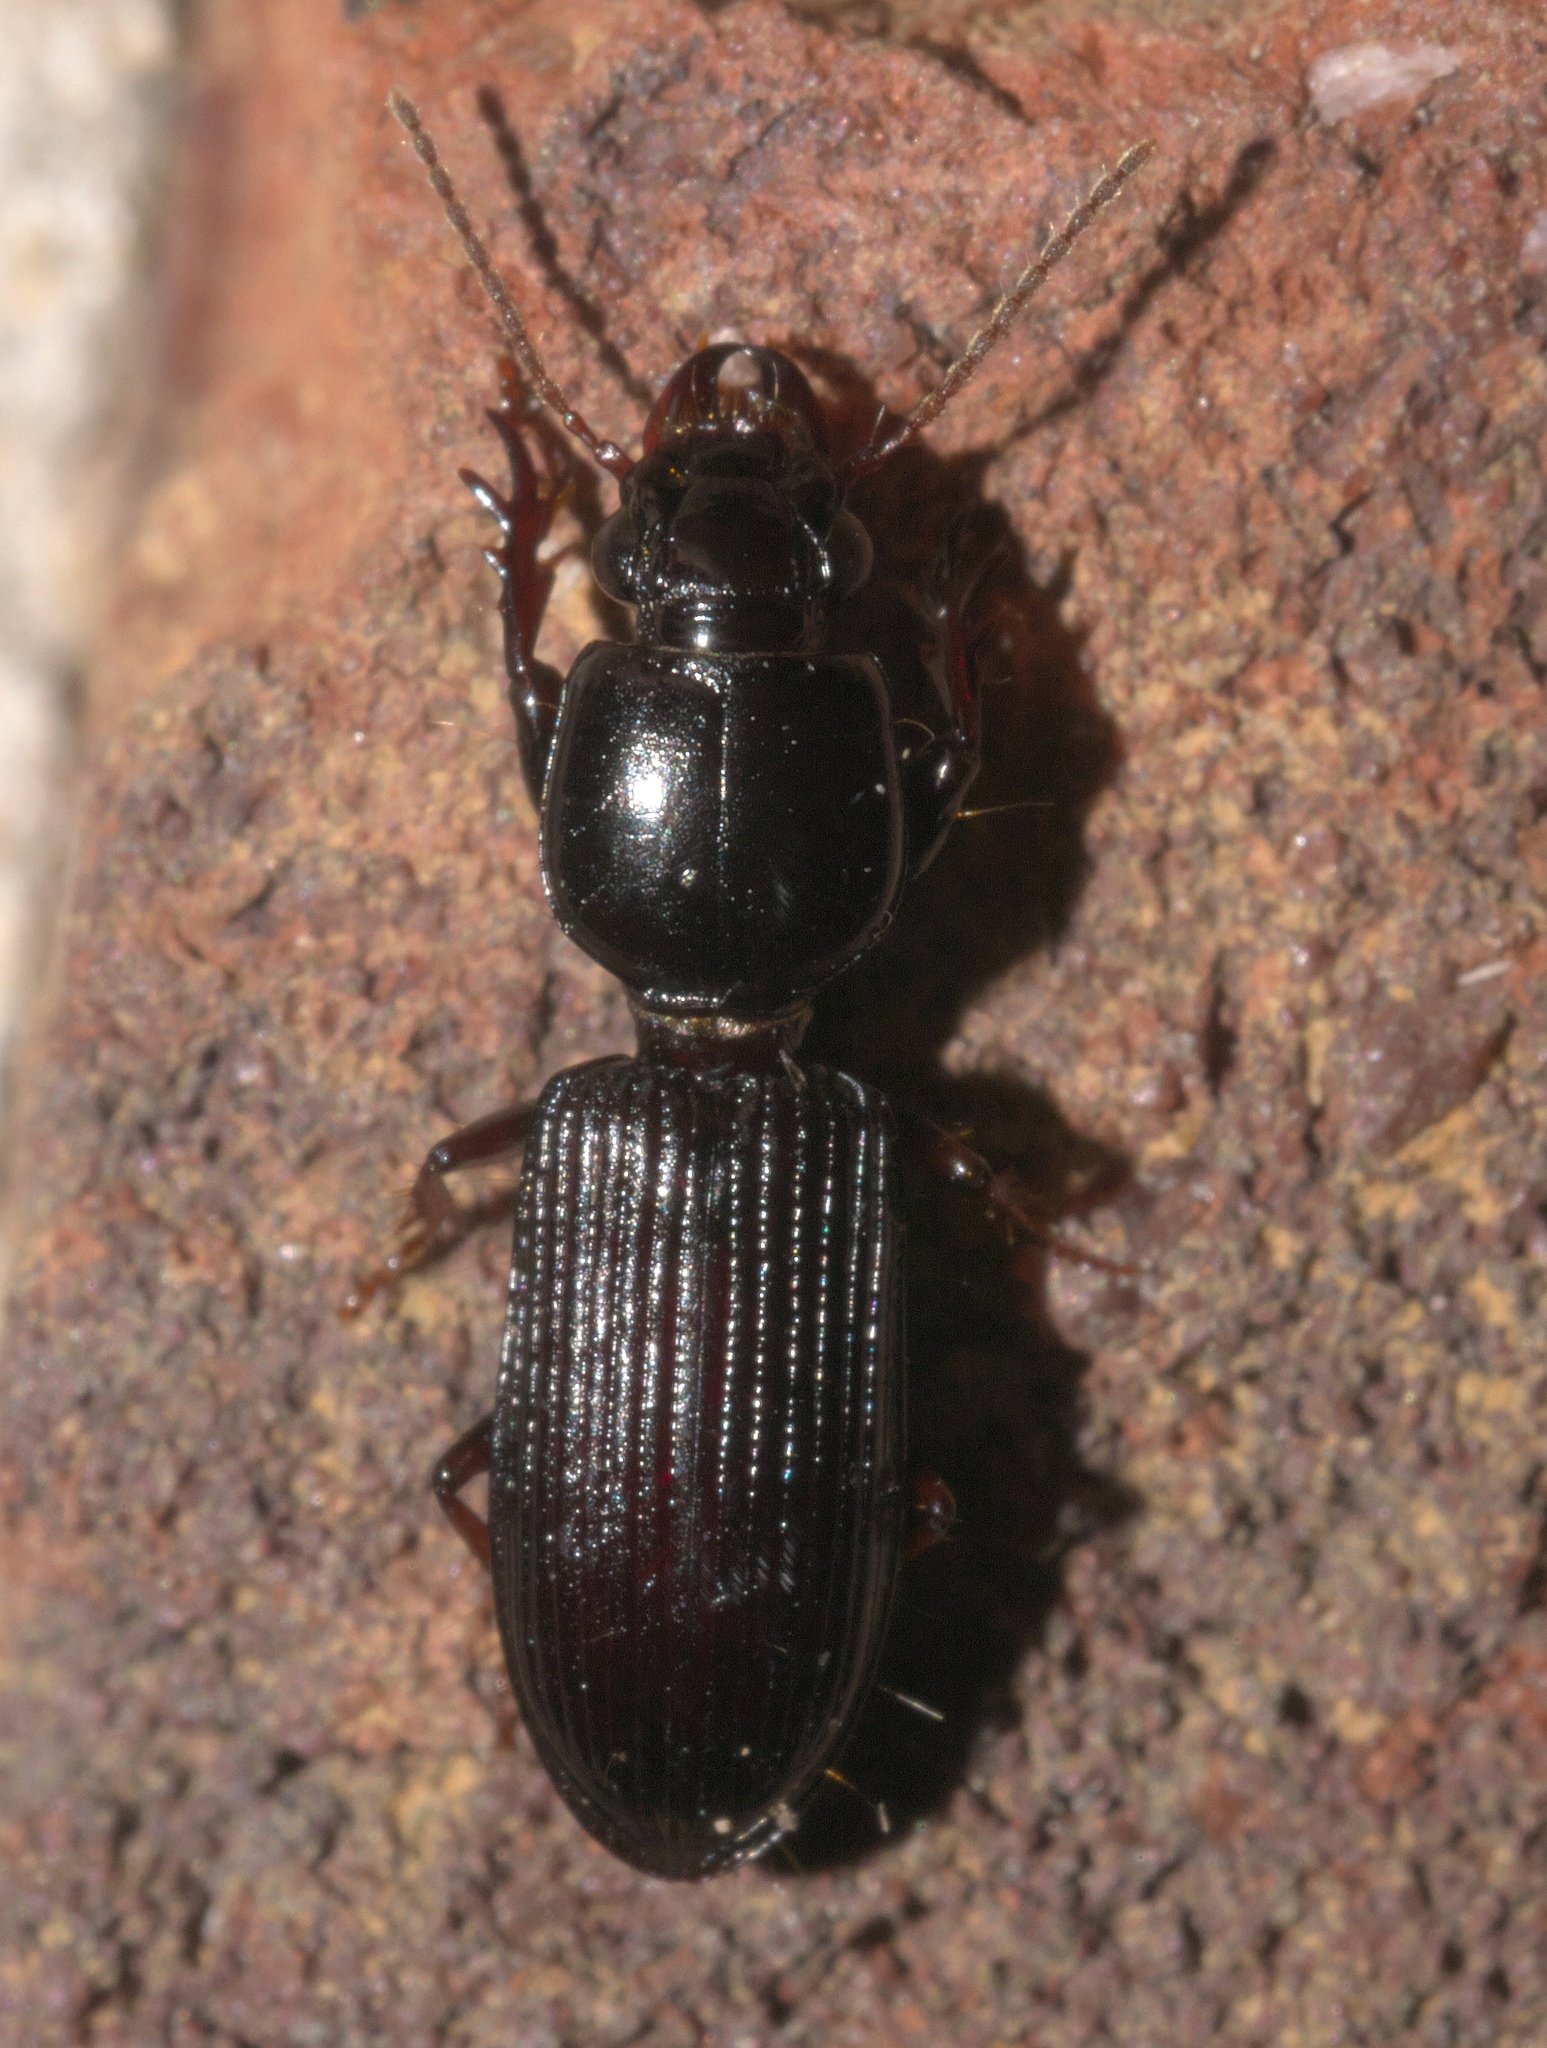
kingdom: Animalia
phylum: Arthropoda
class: Insecta
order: Coleoptera
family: Carabidae
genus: Semiclivina
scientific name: Semiclivina dentipes
